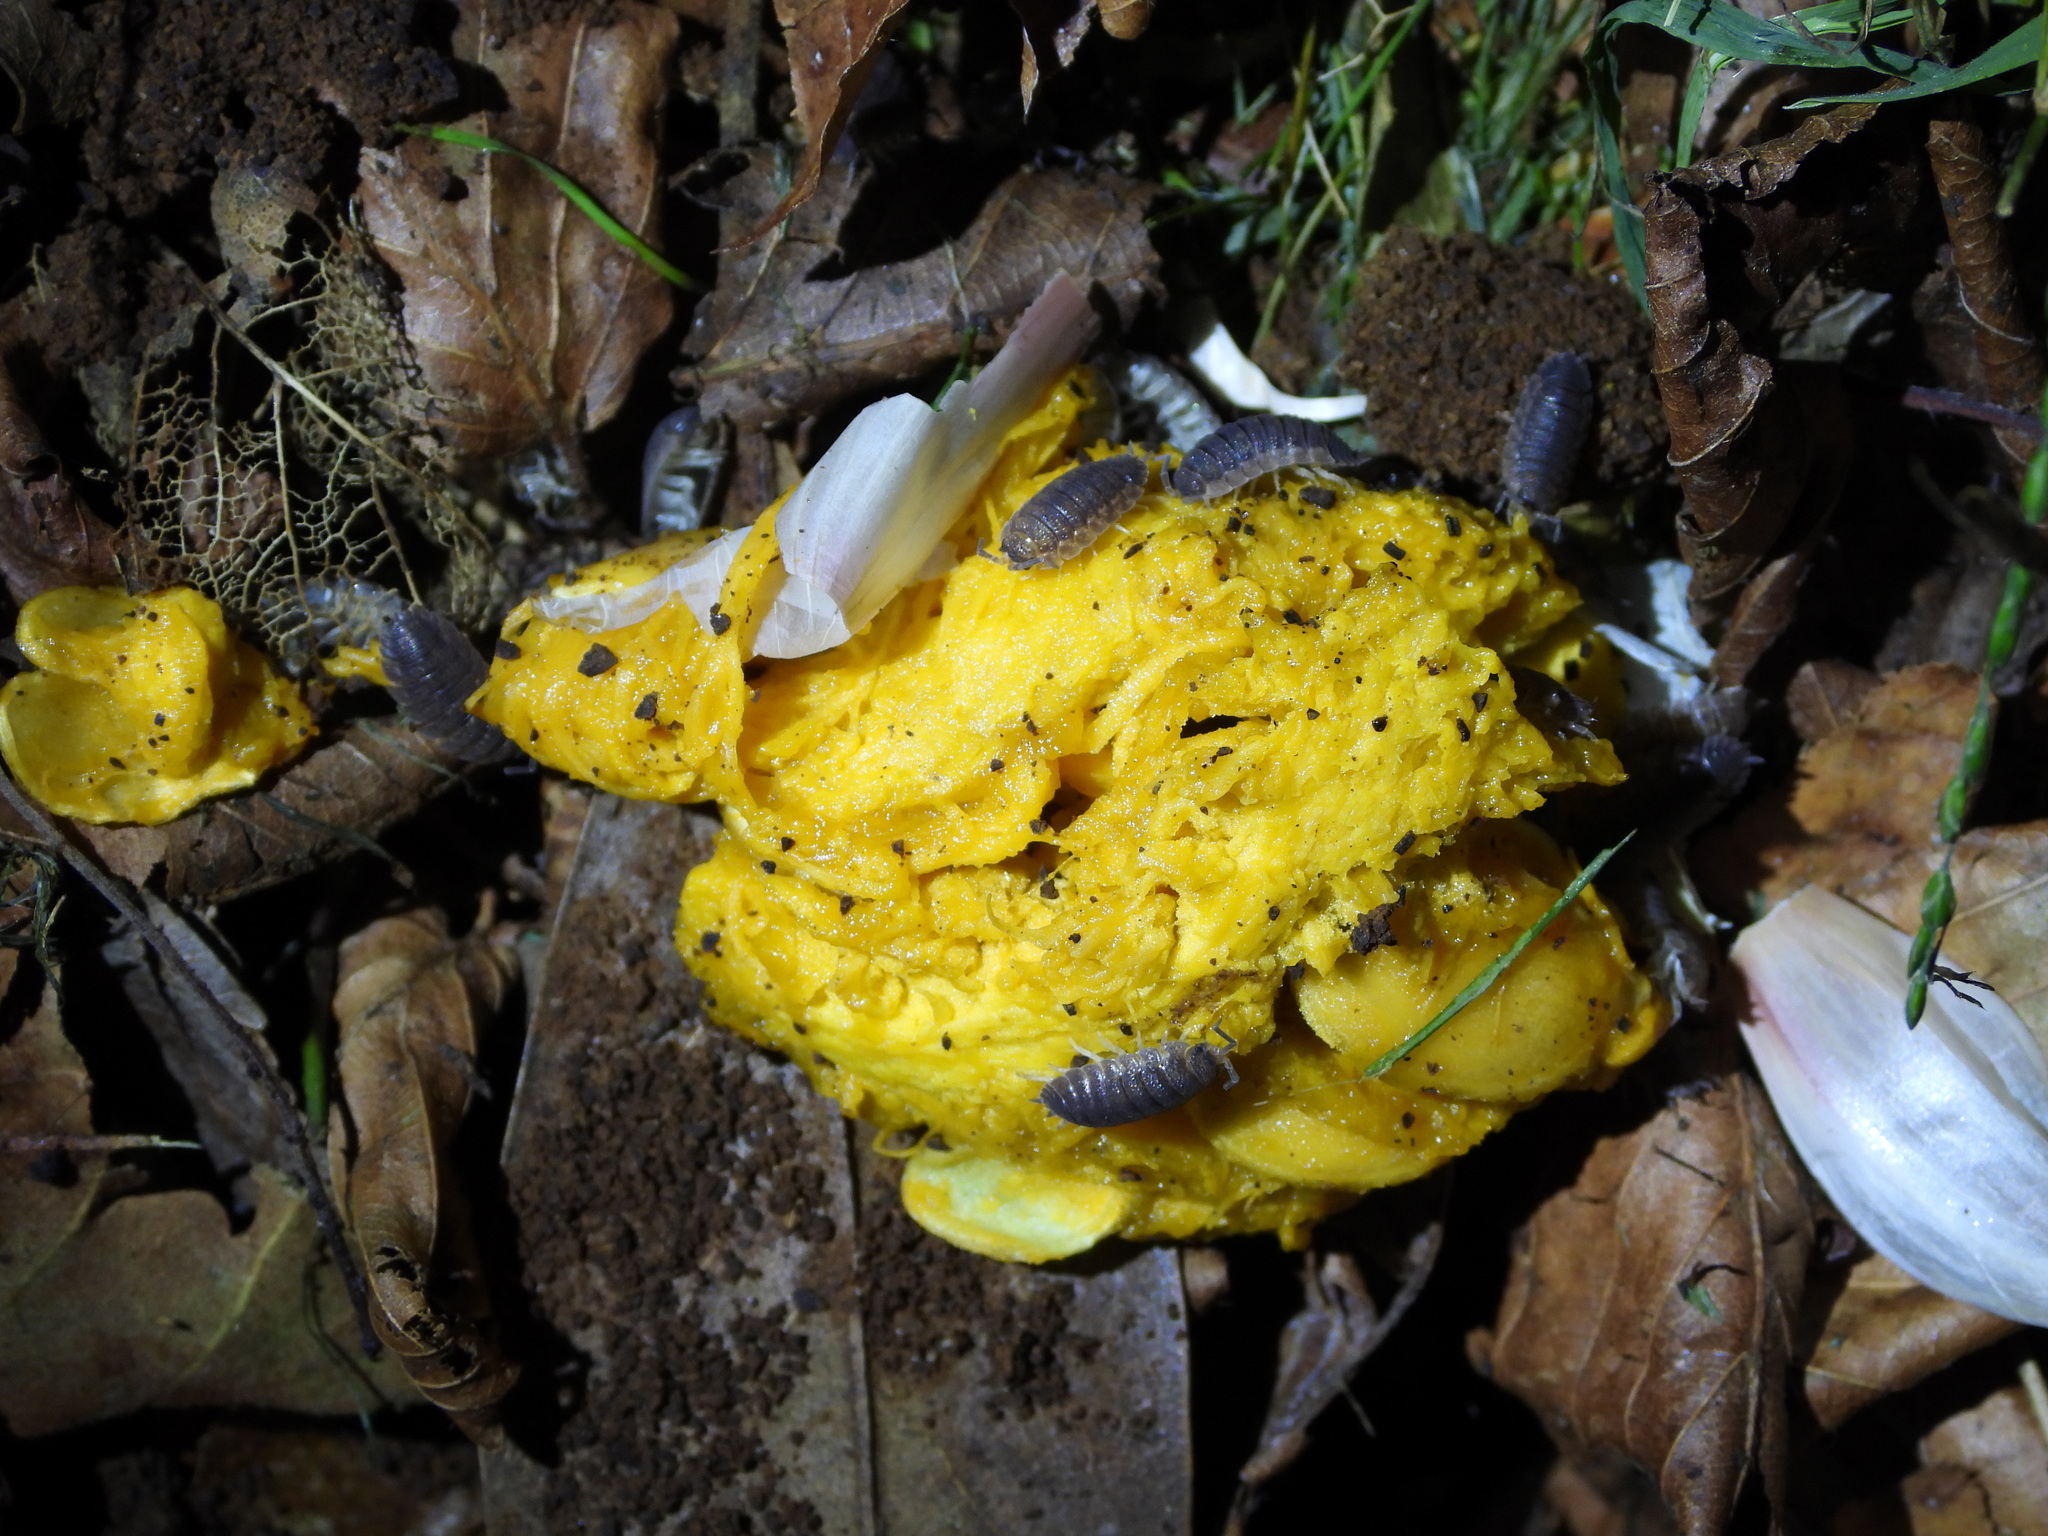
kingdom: Animalia
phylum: Arthropoda
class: Malacostraca
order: Isopoda
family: Porcellionidae
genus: Porcellio
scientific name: Porcellio scaber
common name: Common rough woodlouse
